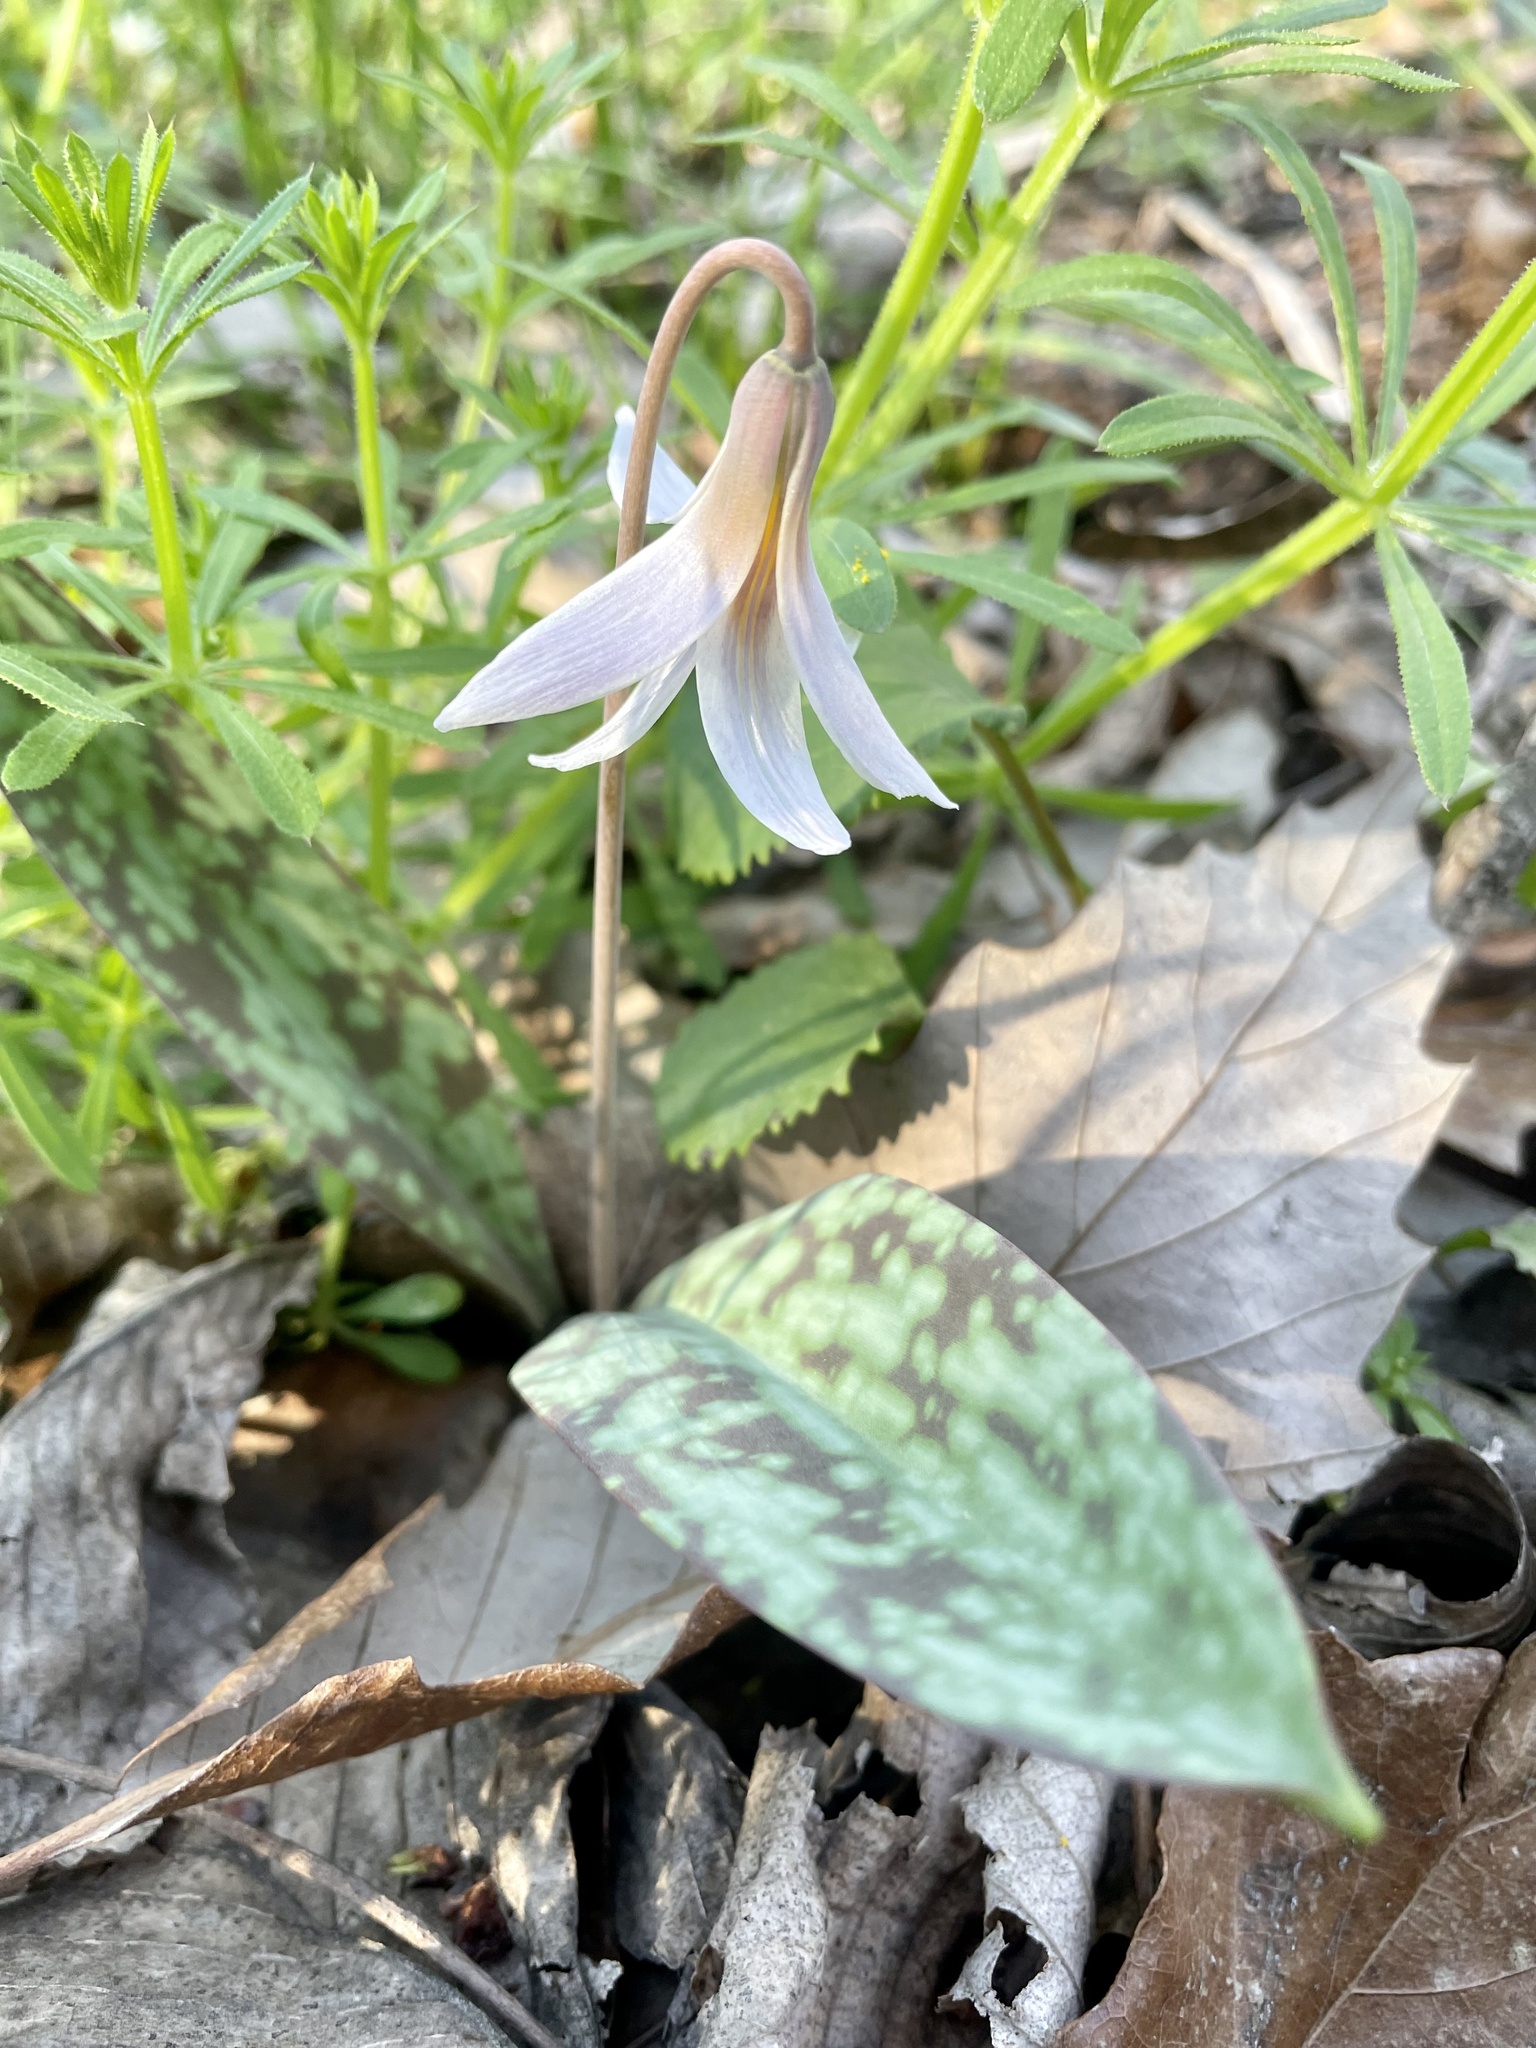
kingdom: Plantae
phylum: Tracheophyta
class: Liliopsida
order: Liliales
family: Liliaceae
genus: Erythronium
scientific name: Erythronium albidum
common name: White trout-lily
